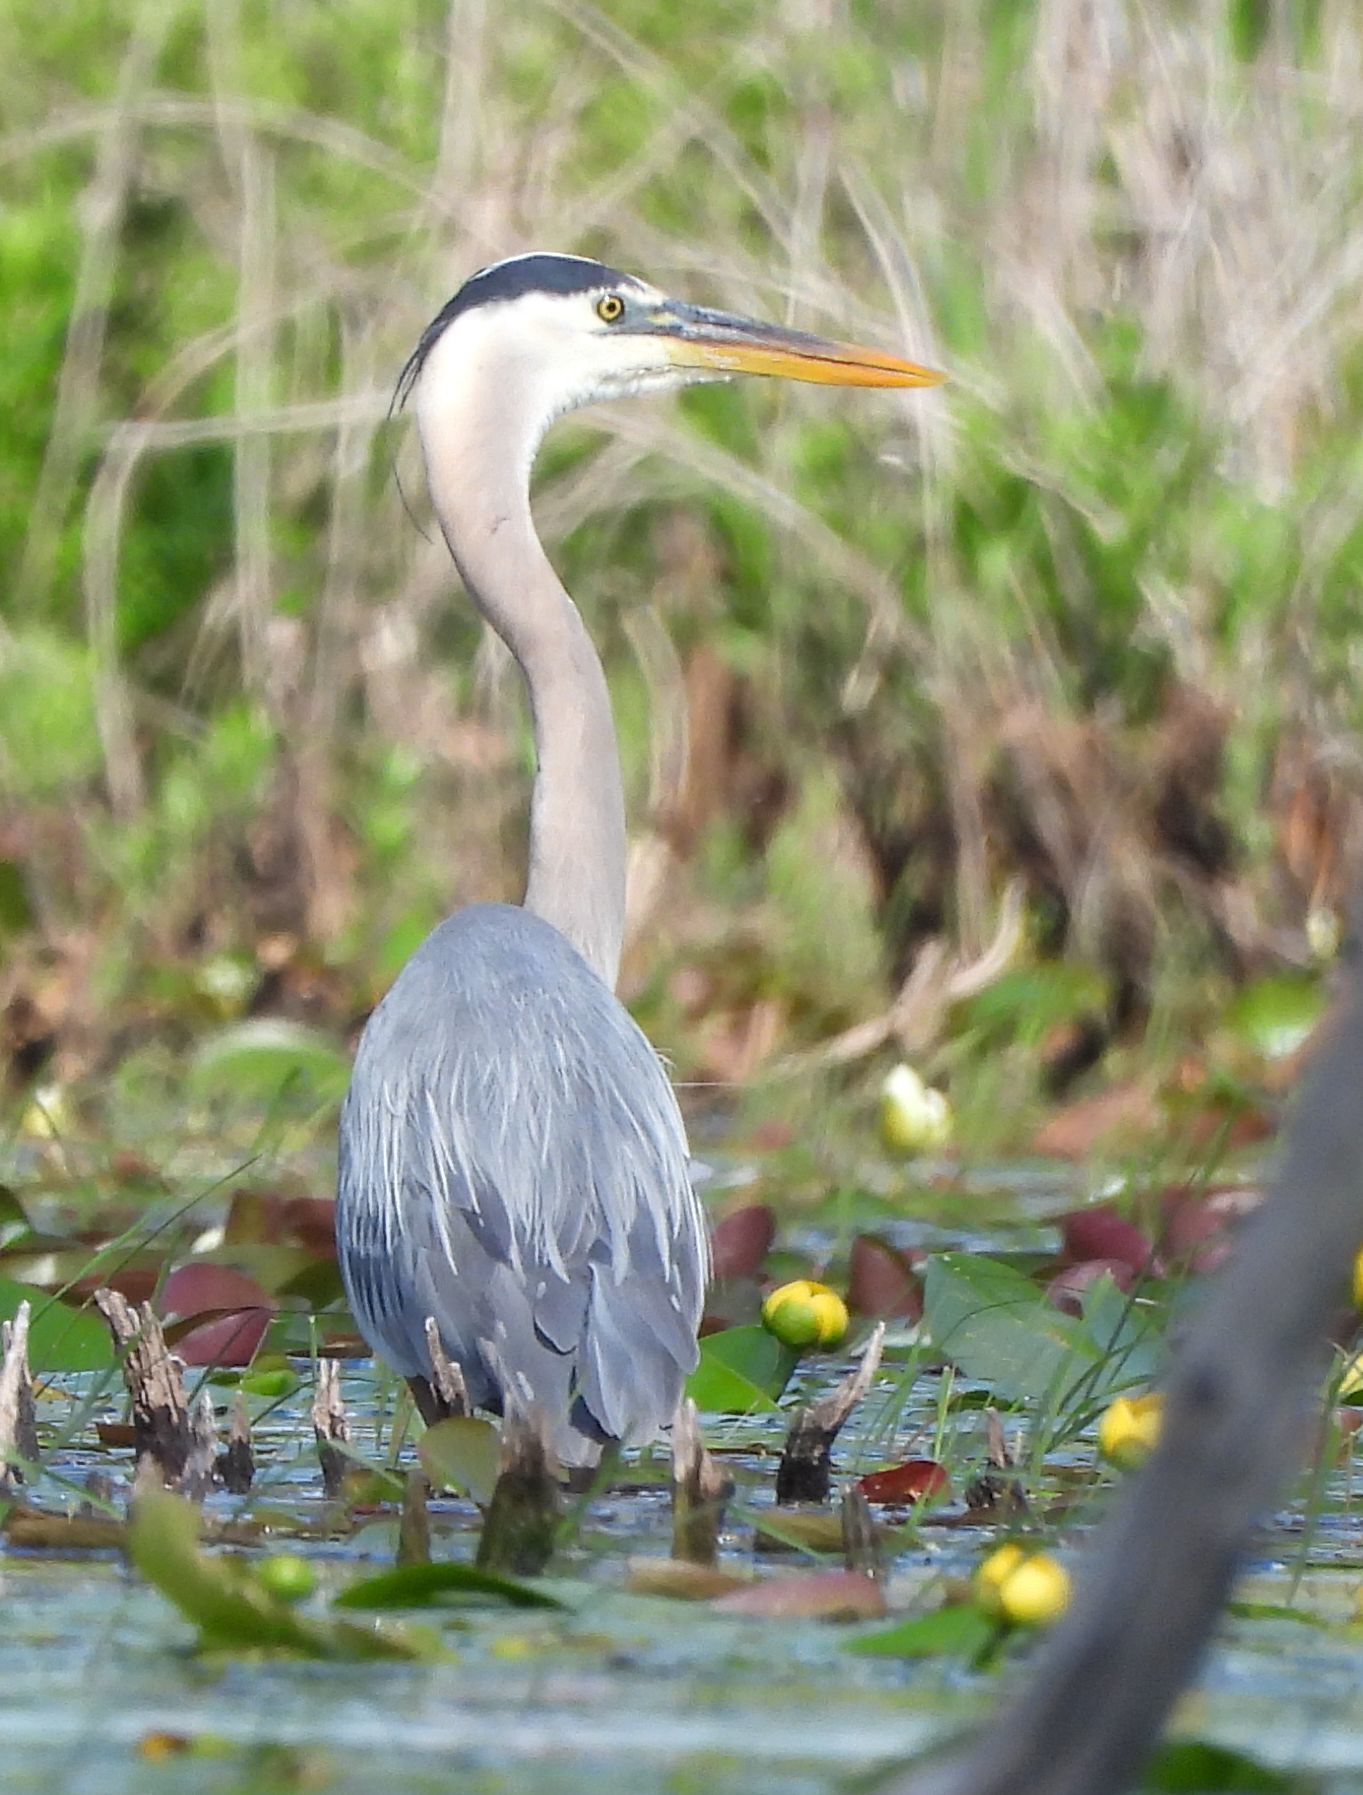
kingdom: Animalia
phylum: Chordata
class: Aves
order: Pelecaniformes
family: Ardeidae
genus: Ardea
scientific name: Ardea herodias
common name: Great blue heron
